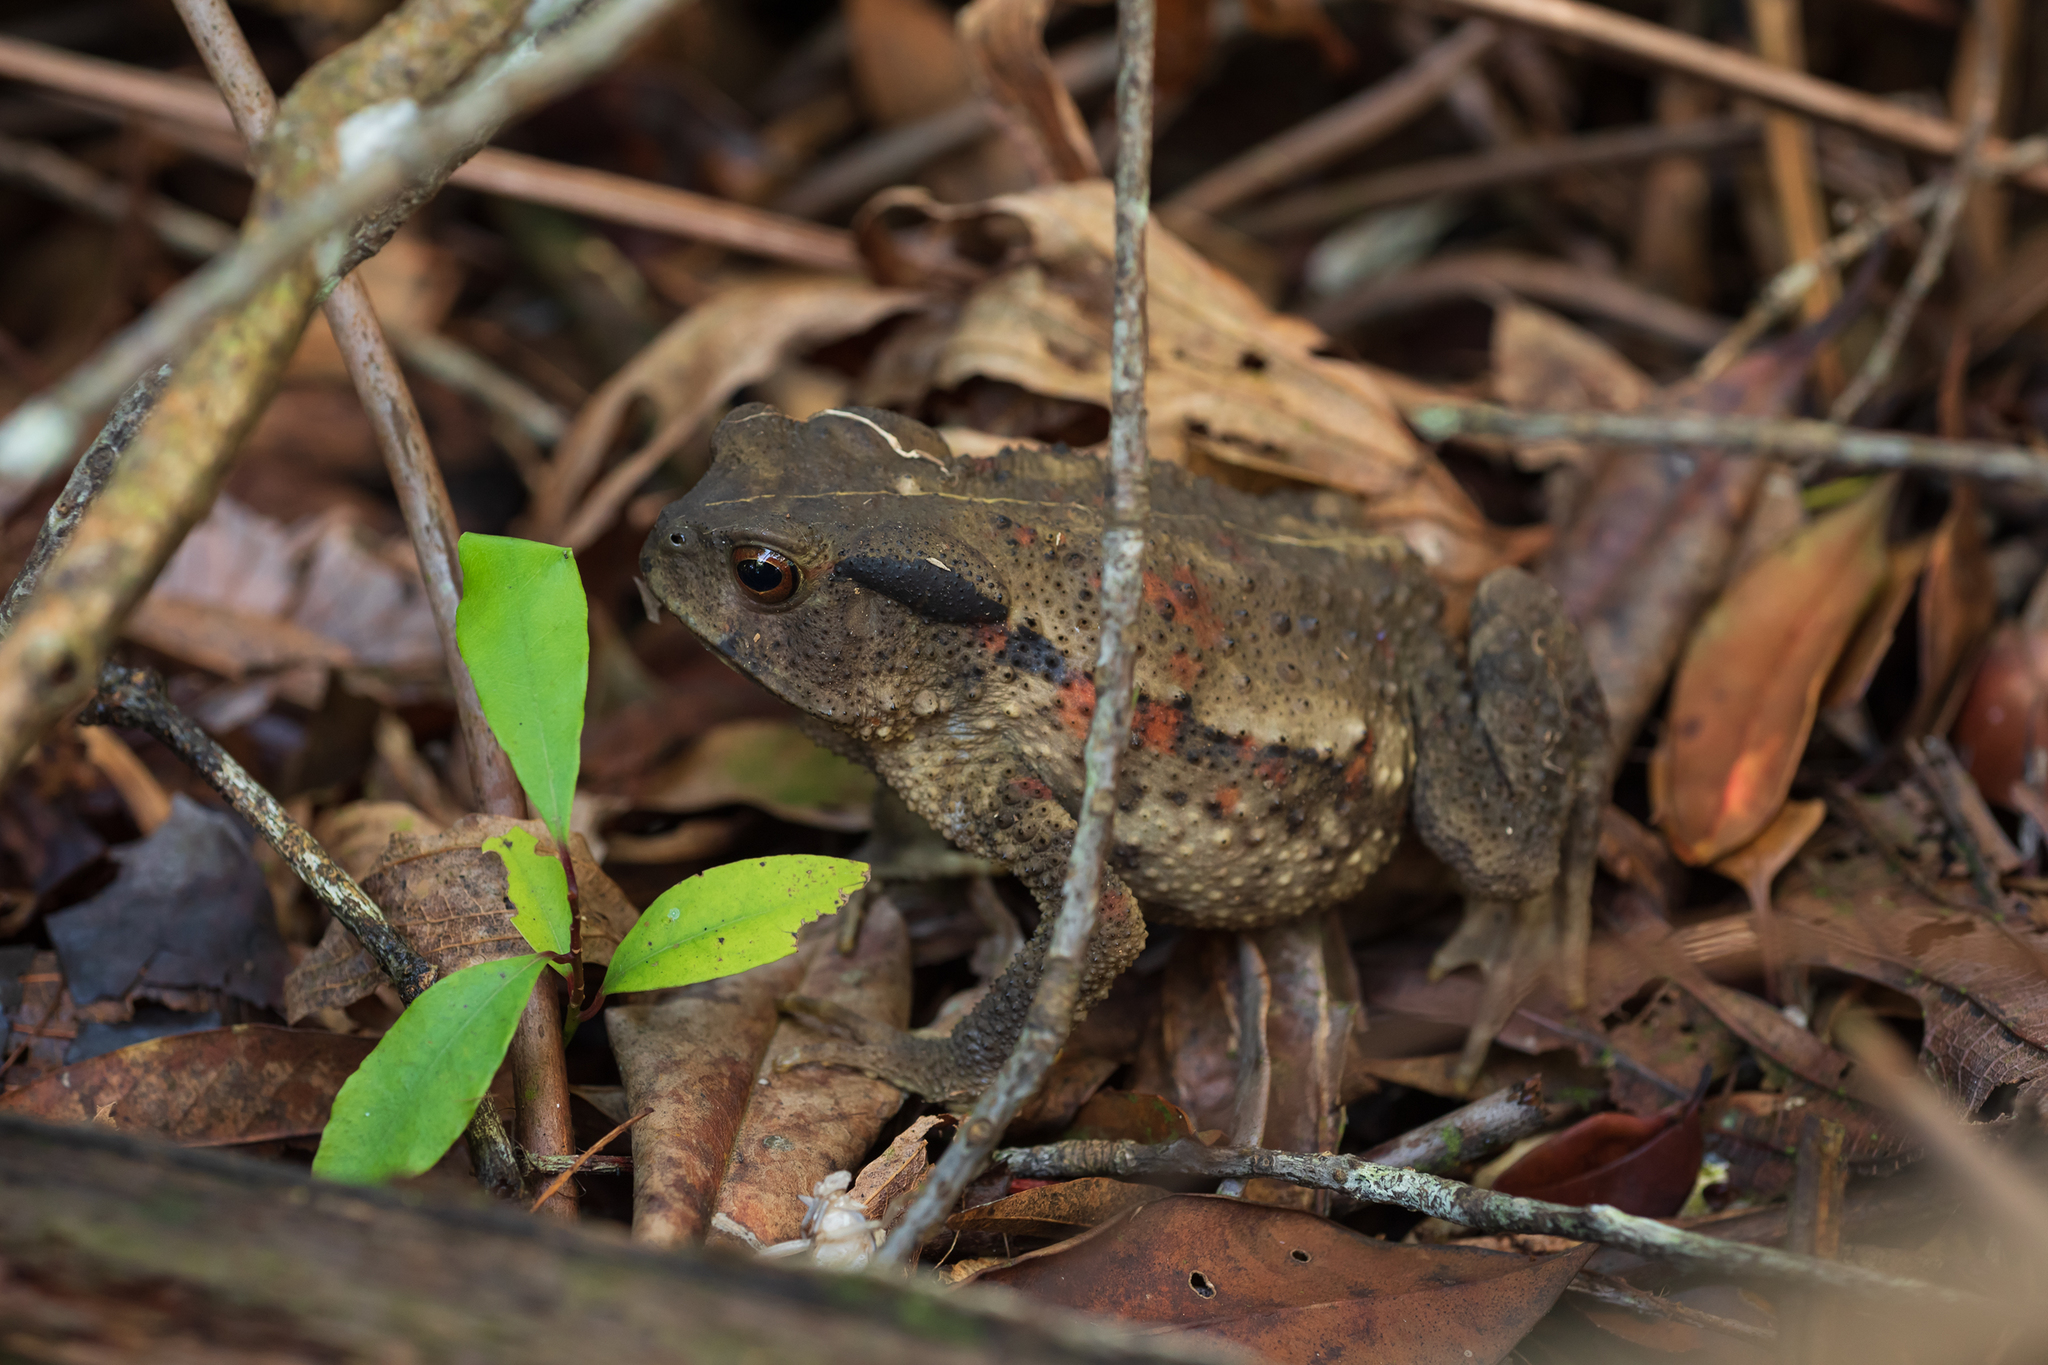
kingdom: Animalia
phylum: Chordata
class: Amphibia
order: Anura
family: Bufonidae
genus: Bufo
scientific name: Bufo bankorensis
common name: Bankor toad
